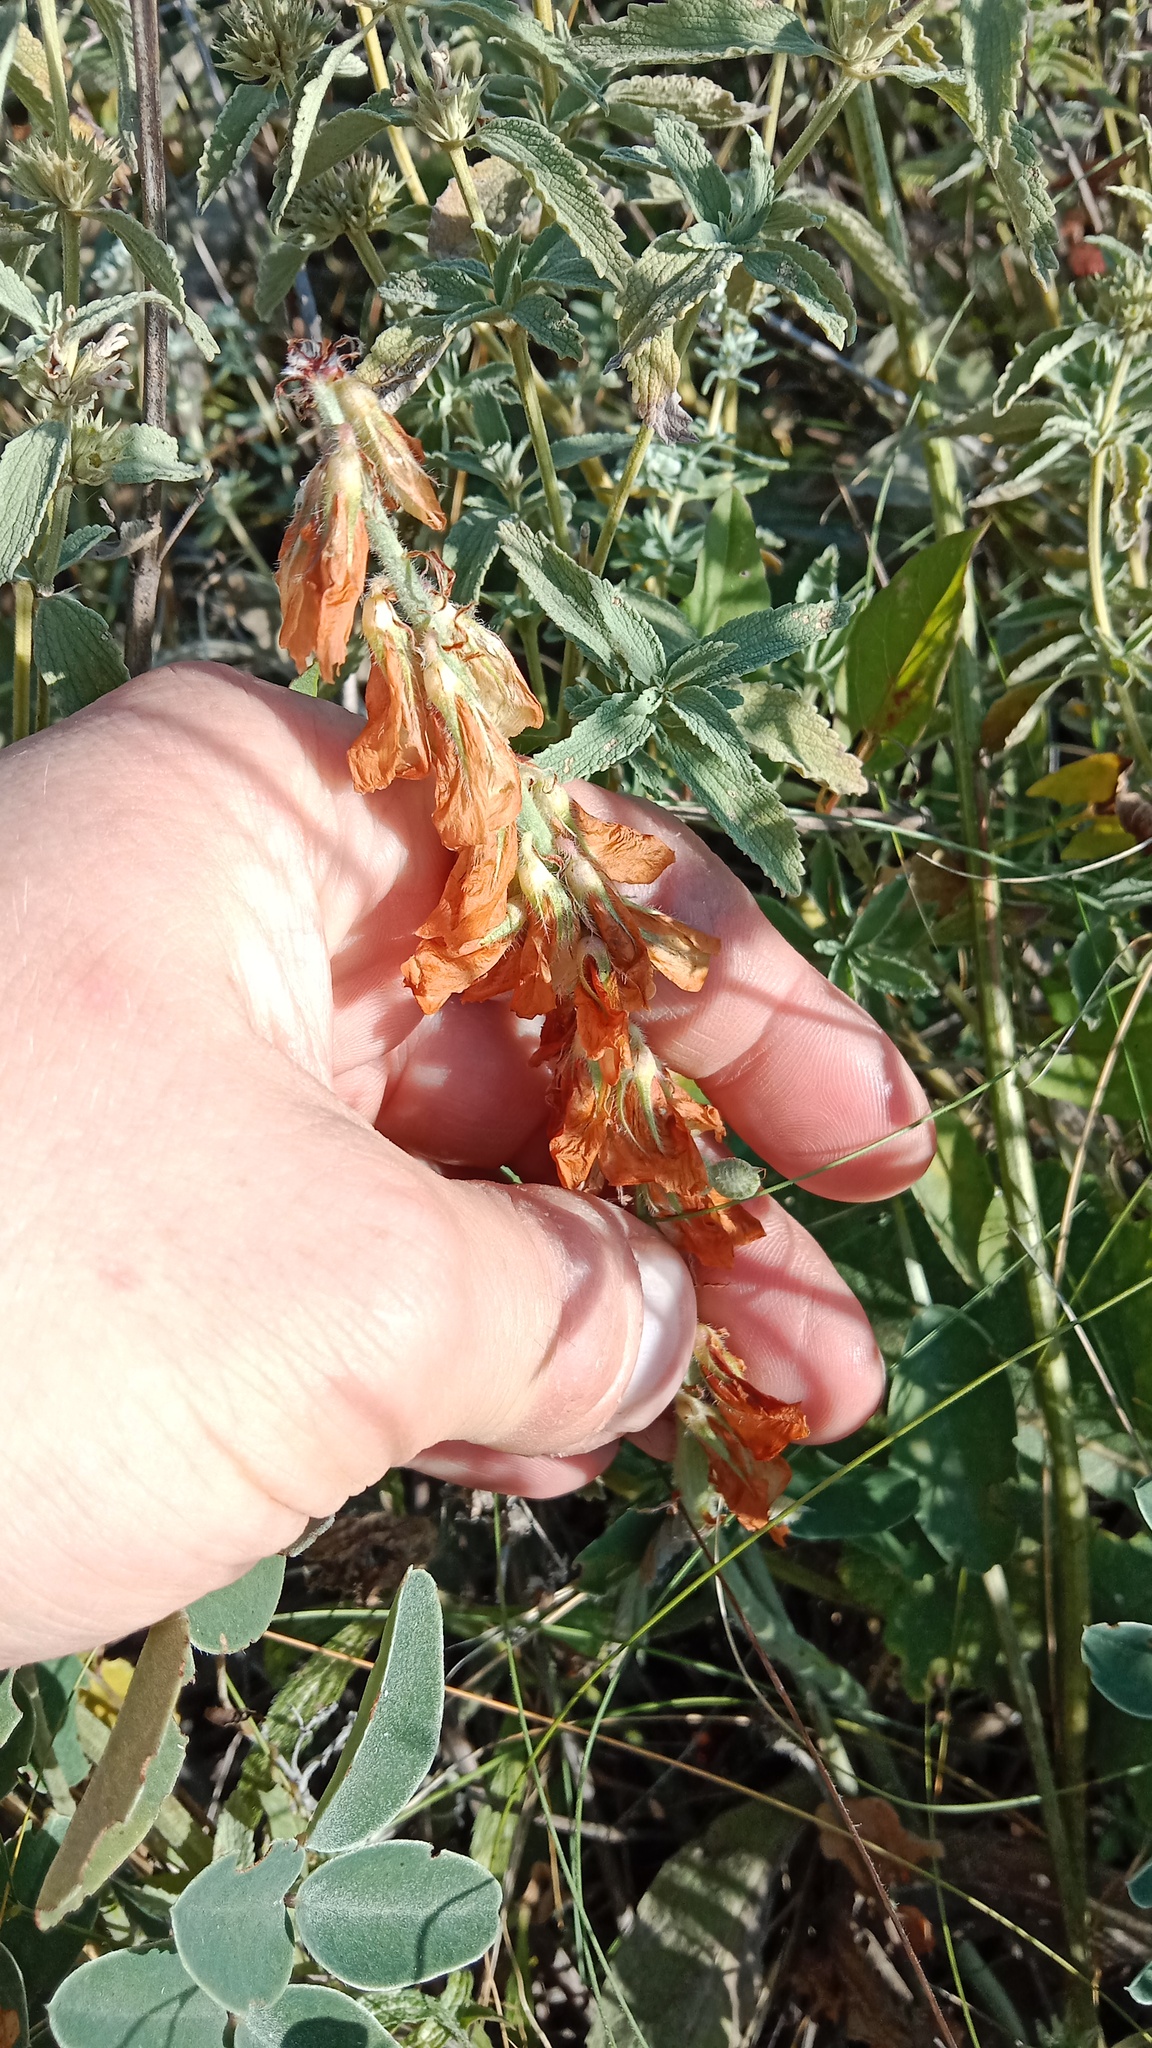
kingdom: Plantae
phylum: Tracheophyta
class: Magnoliopsida
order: Fabales
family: Fabaceae
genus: Hedysarum
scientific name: Hedysarum grandiflorum
